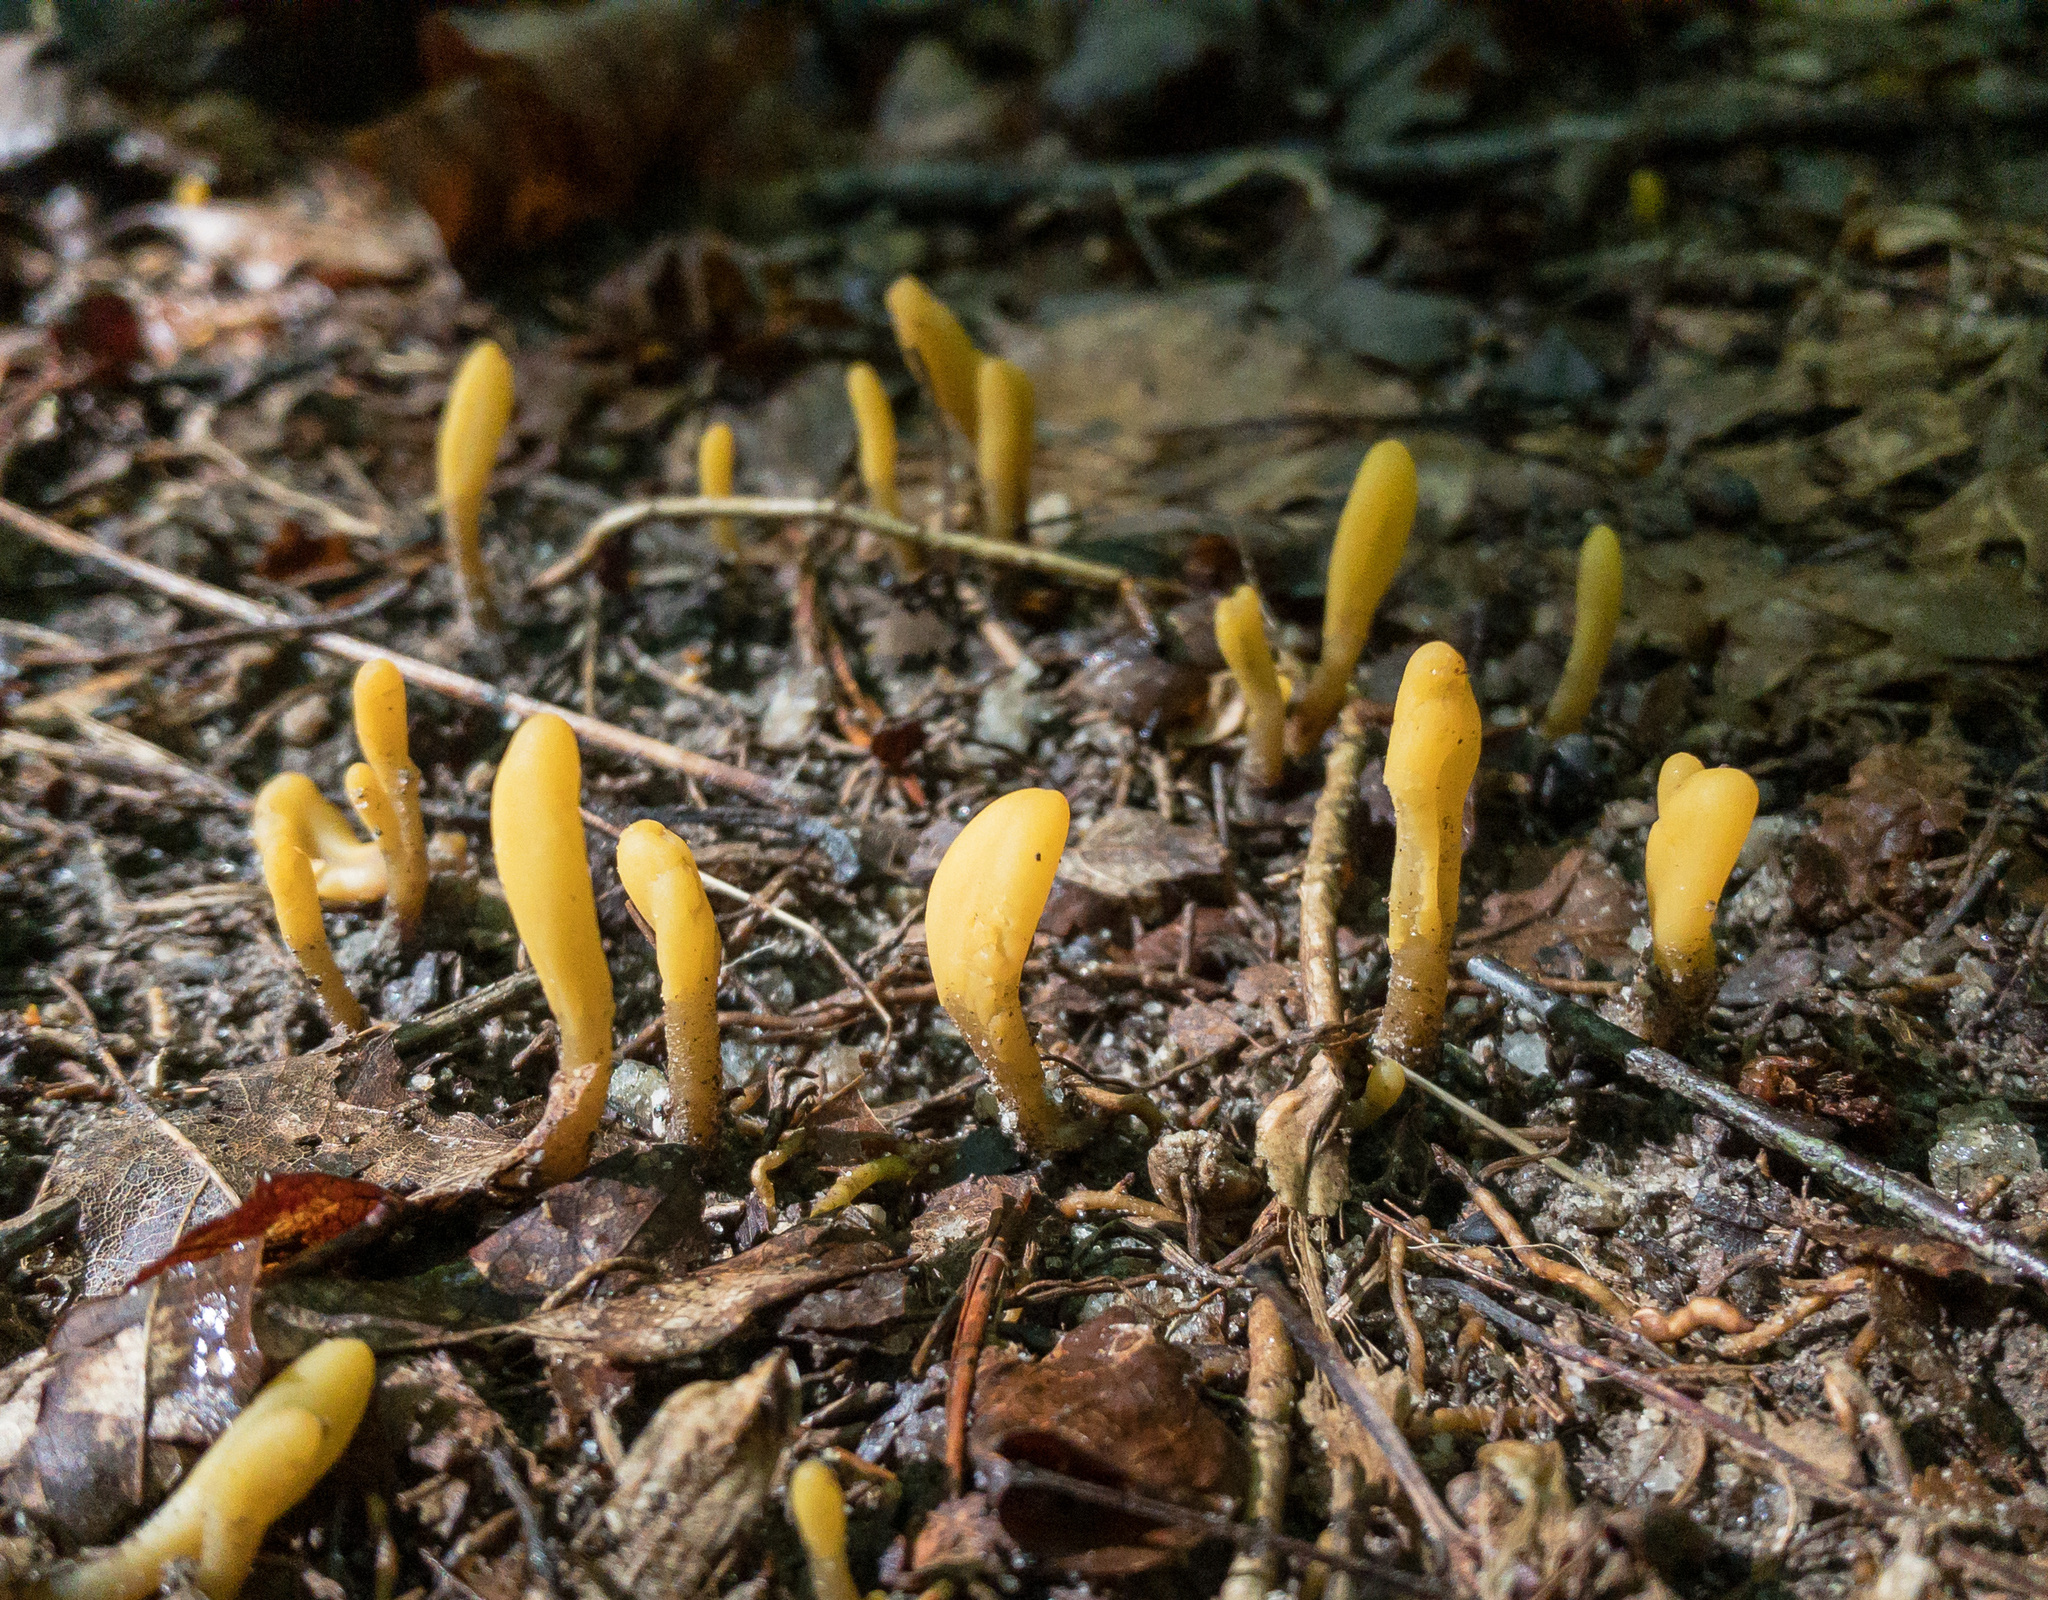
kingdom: Fungi
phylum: Ascomycota
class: Leotiomycetes
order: Leotiales
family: Leotiaceae
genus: Microglossum
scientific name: Microglossum rufum
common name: Orange earthtongue
